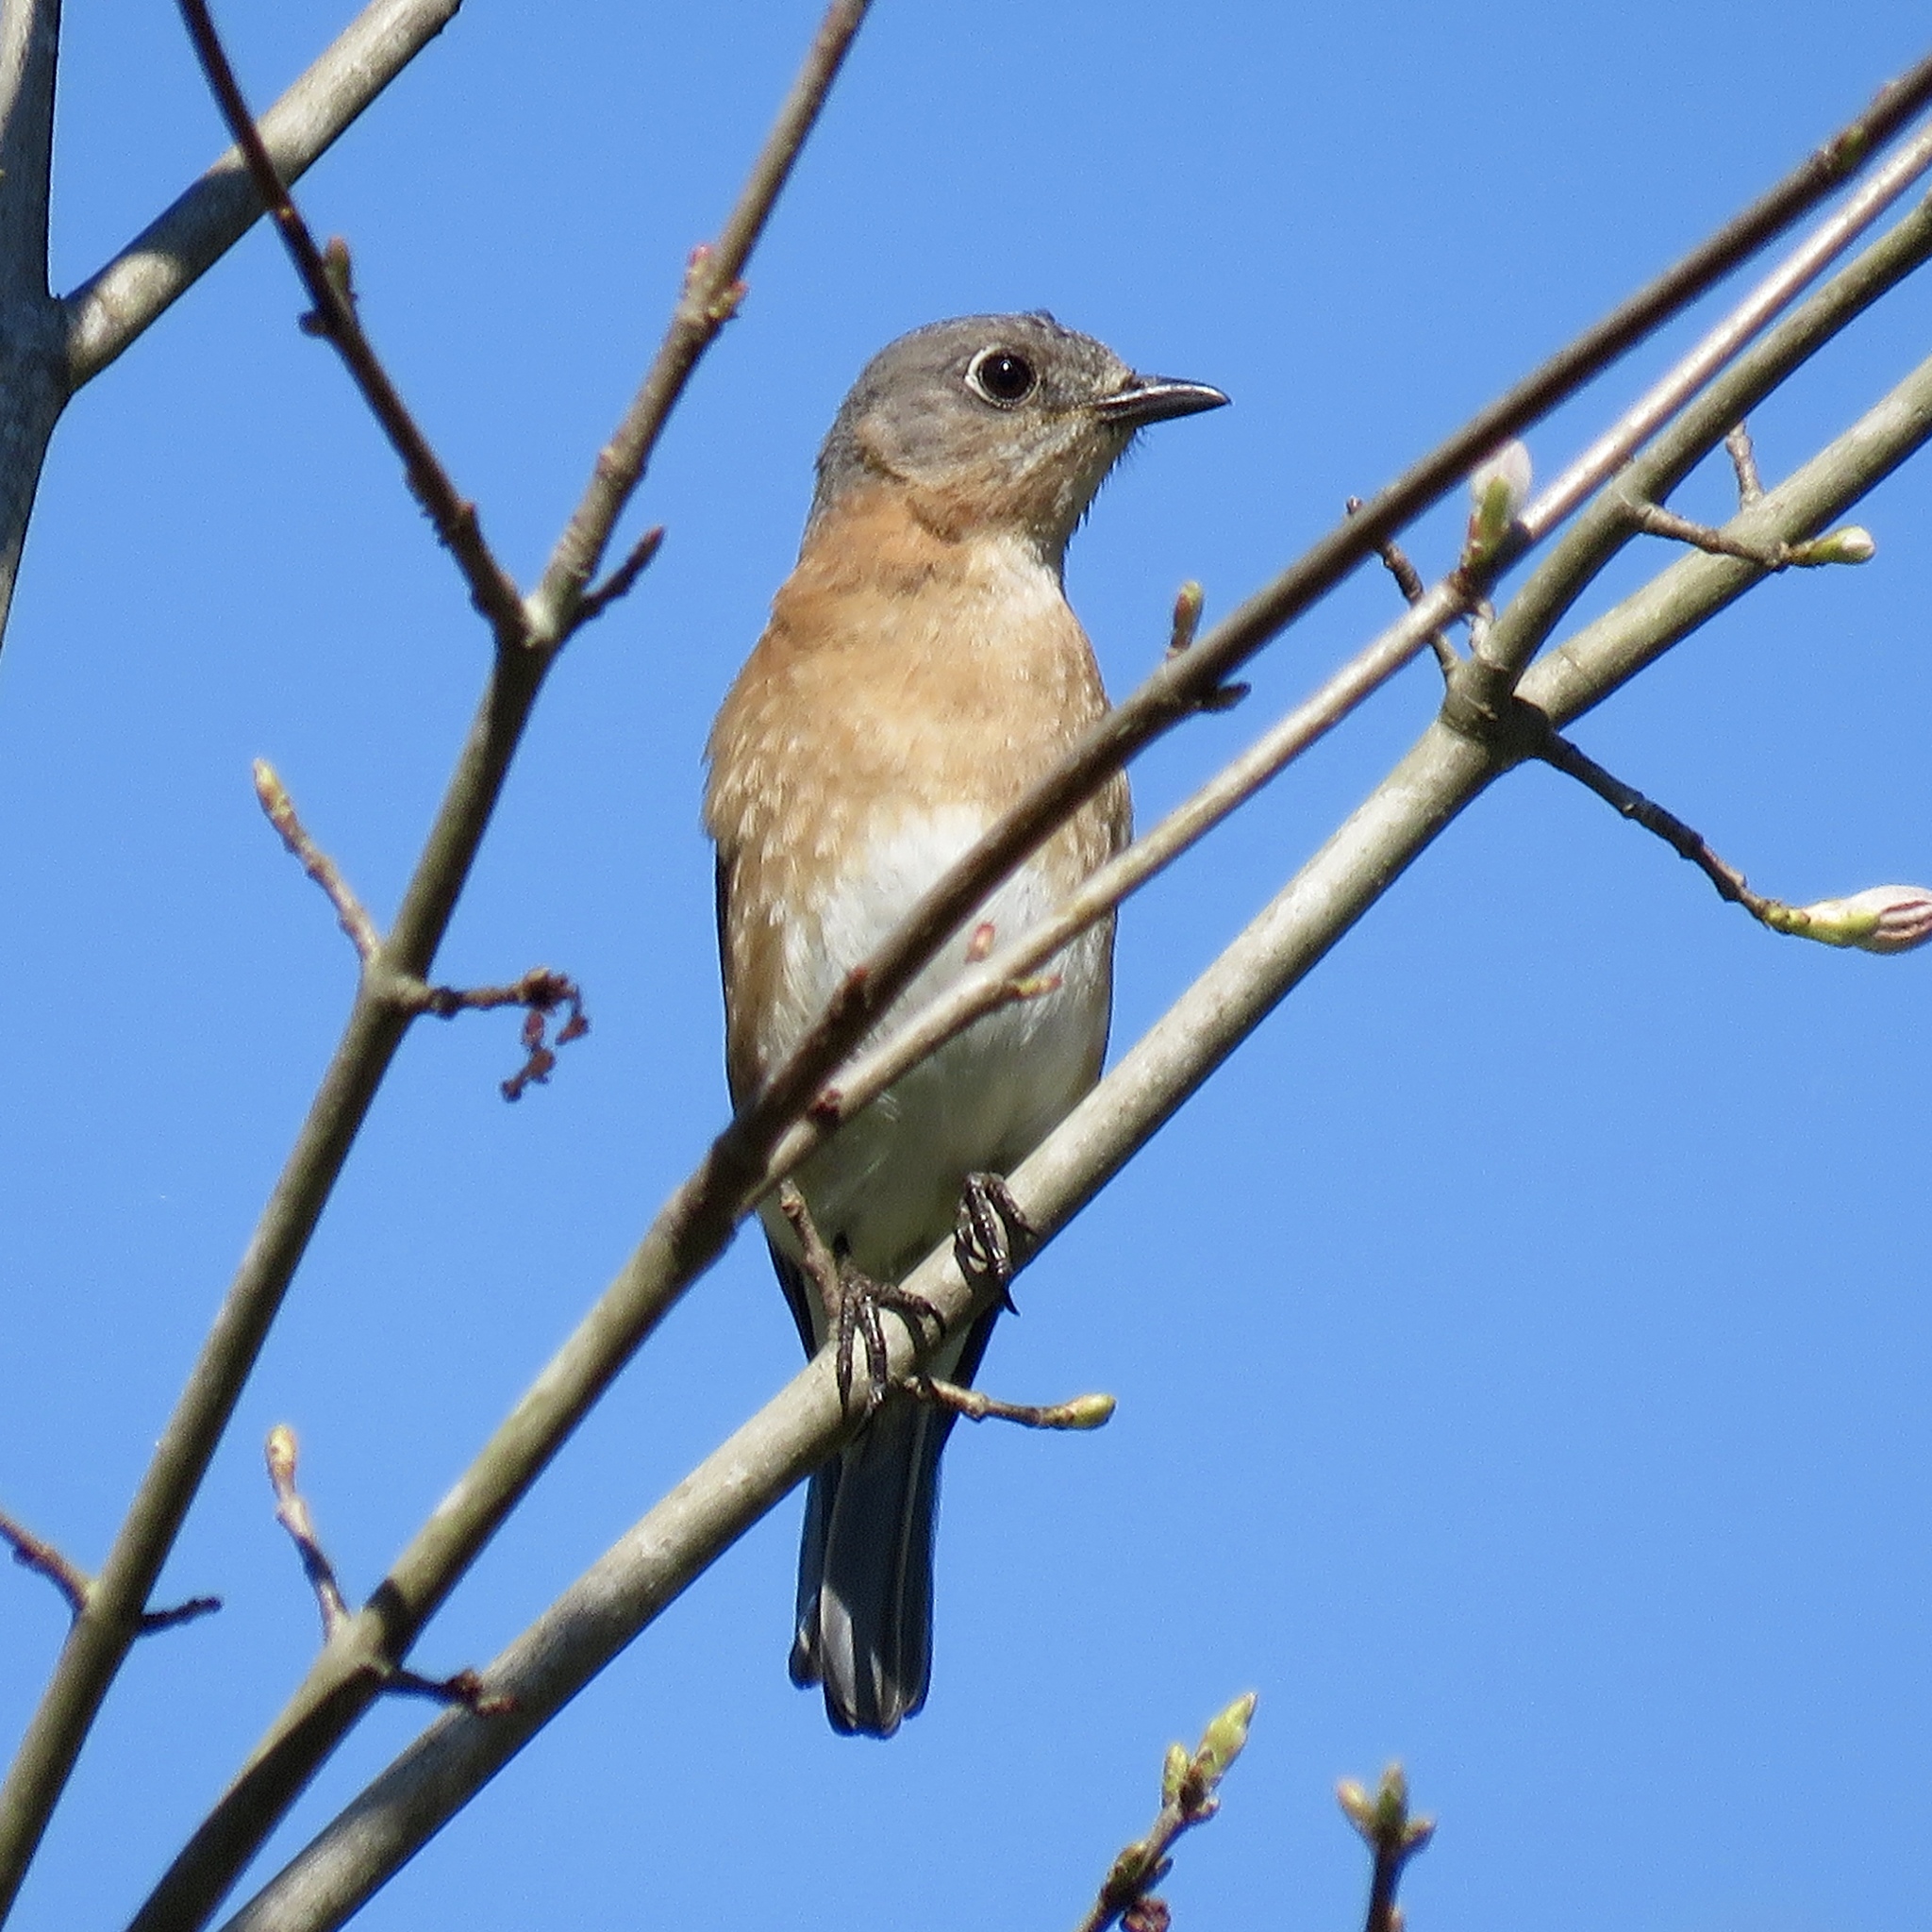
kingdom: Animalia
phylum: Chordata
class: Aves
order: Passeriformes
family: Turdidae
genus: Sialia
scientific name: Sialia sialis
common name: Eastern bluebird
